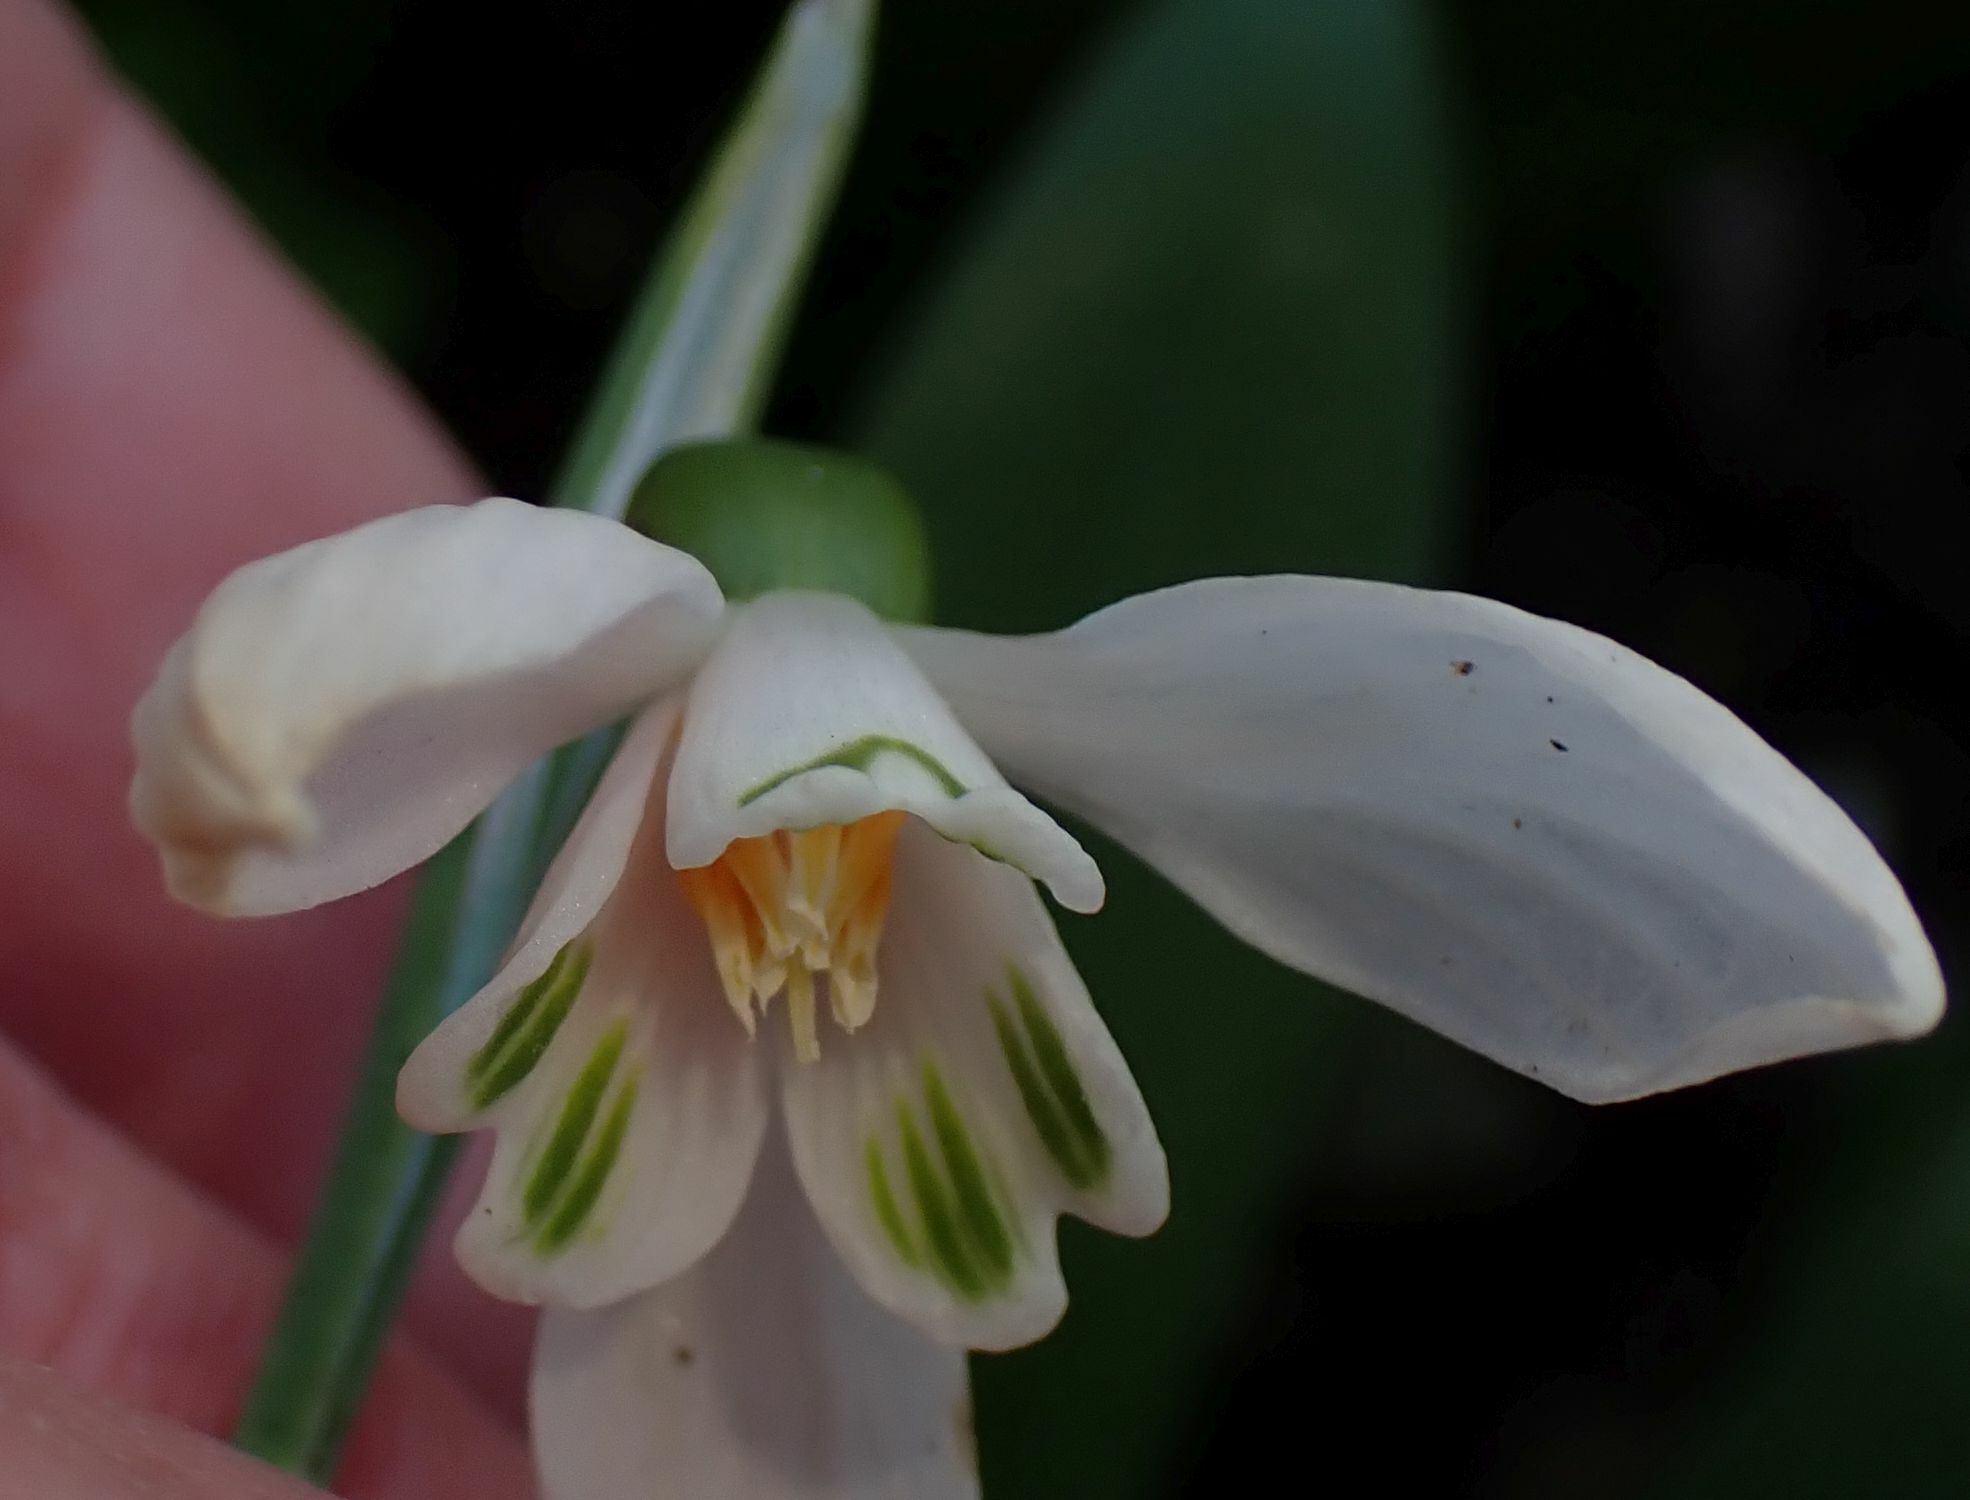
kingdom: Plantae
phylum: Tracheophyta
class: Liliopsida
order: Asparagales
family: Amaryllidaceae
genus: Galanthus
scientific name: Galanthus woronowii
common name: Green snowdrop
